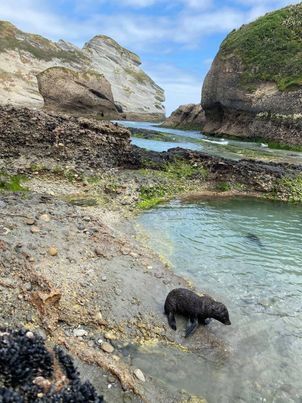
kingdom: Animalia
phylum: Chordata
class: Mammalia
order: Carnivora
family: Otariidae
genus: Arctocephalus
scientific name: Arctocephalus forsteri
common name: New zealand fur seal
